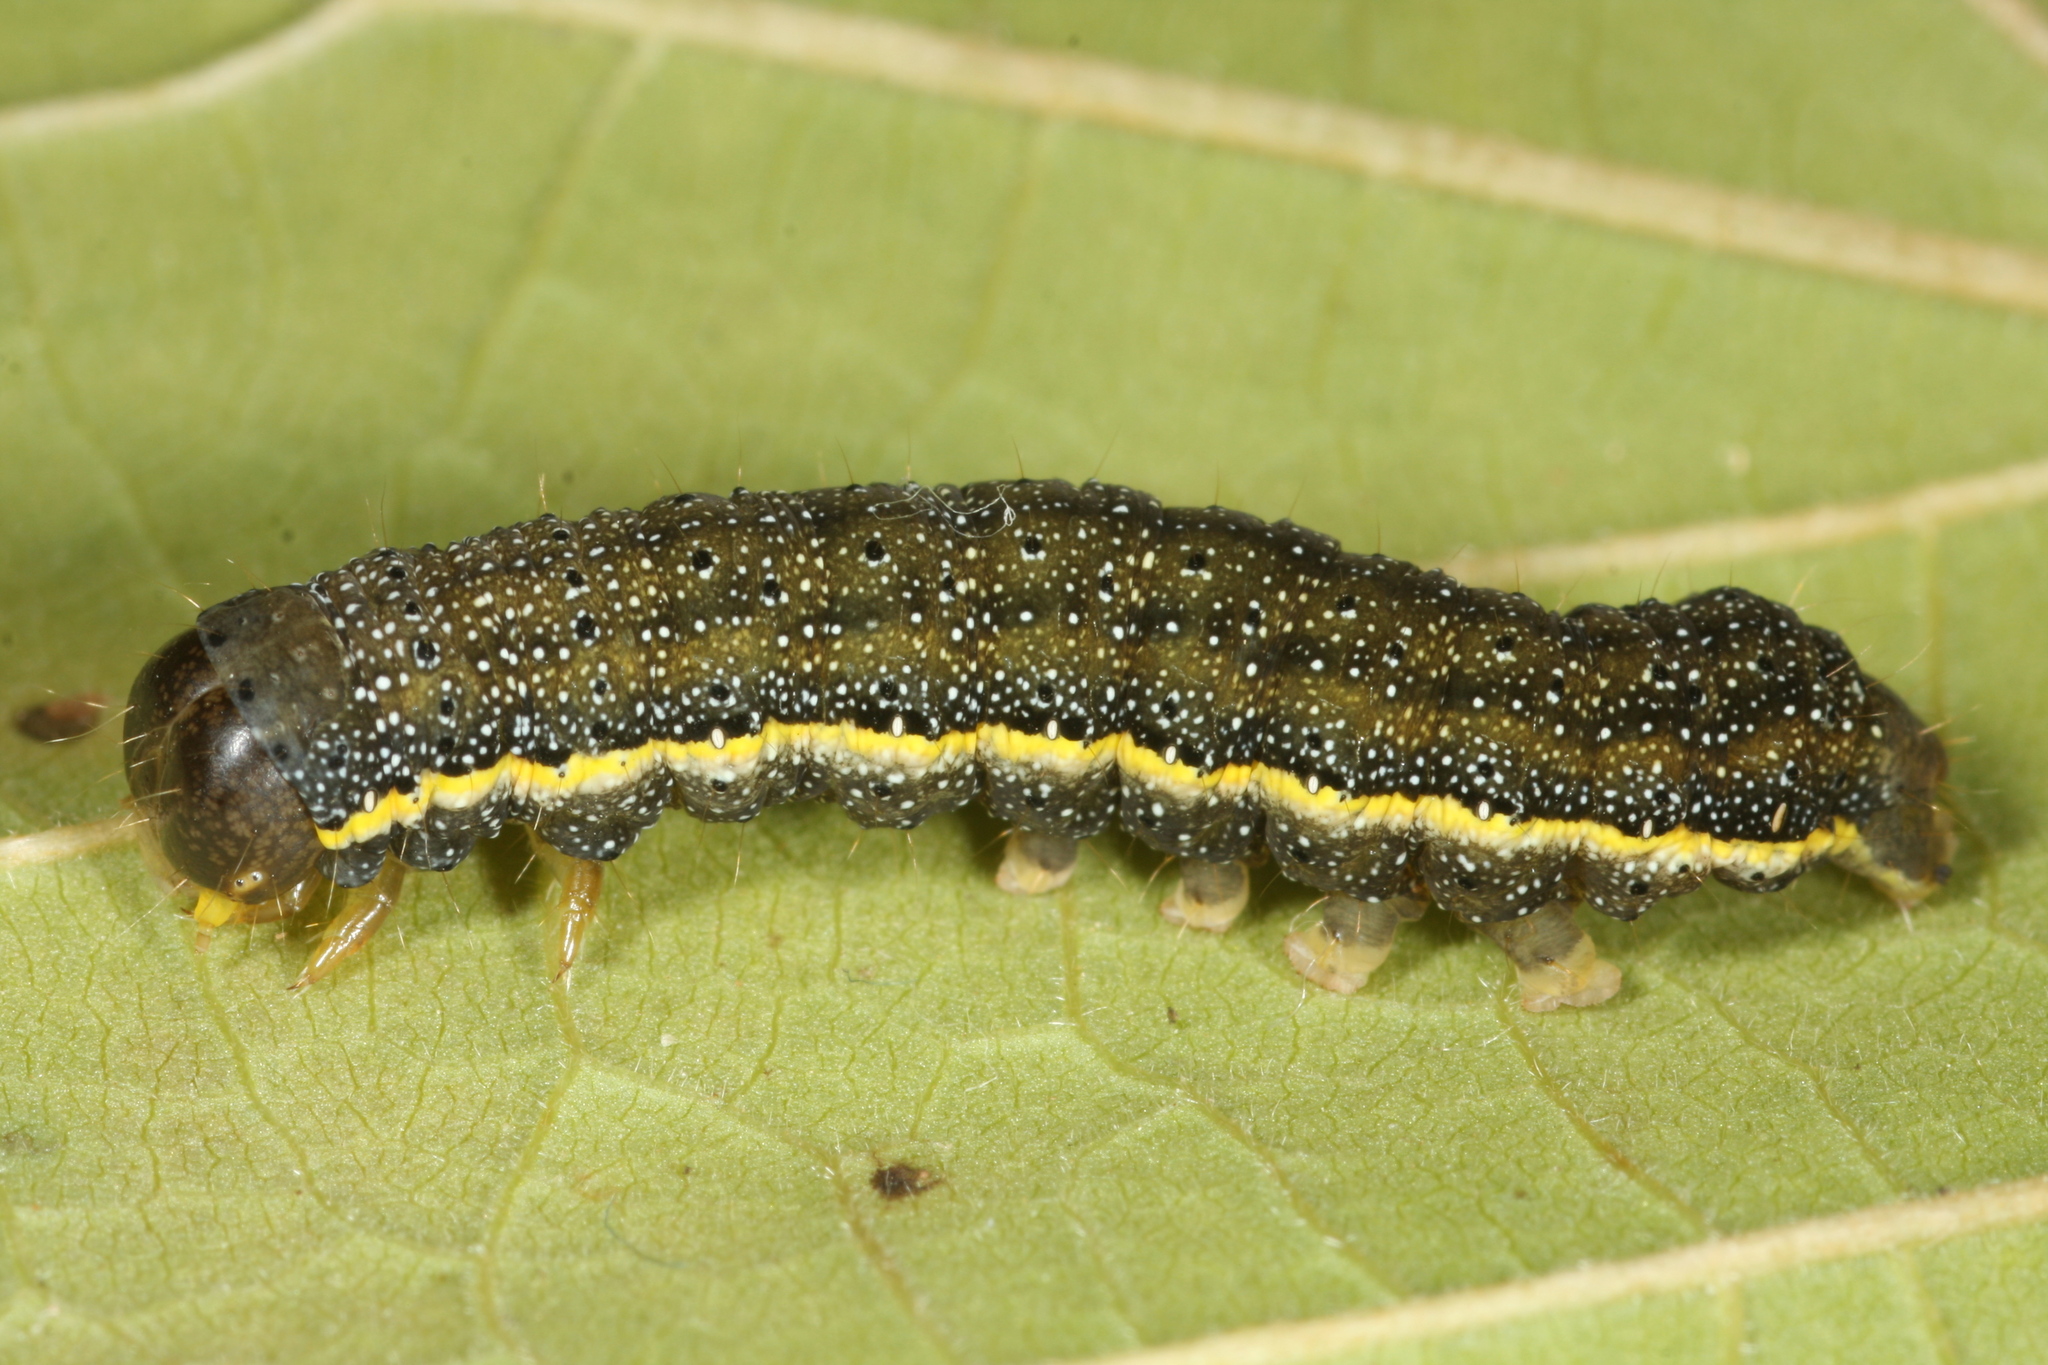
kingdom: Animalia
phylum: Arthropoda
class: Insecta
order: Lepidoptera
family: Noctuidae
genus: Lacanobia
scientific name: Lacanobia oleracea
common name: Bright-line brown-eye
